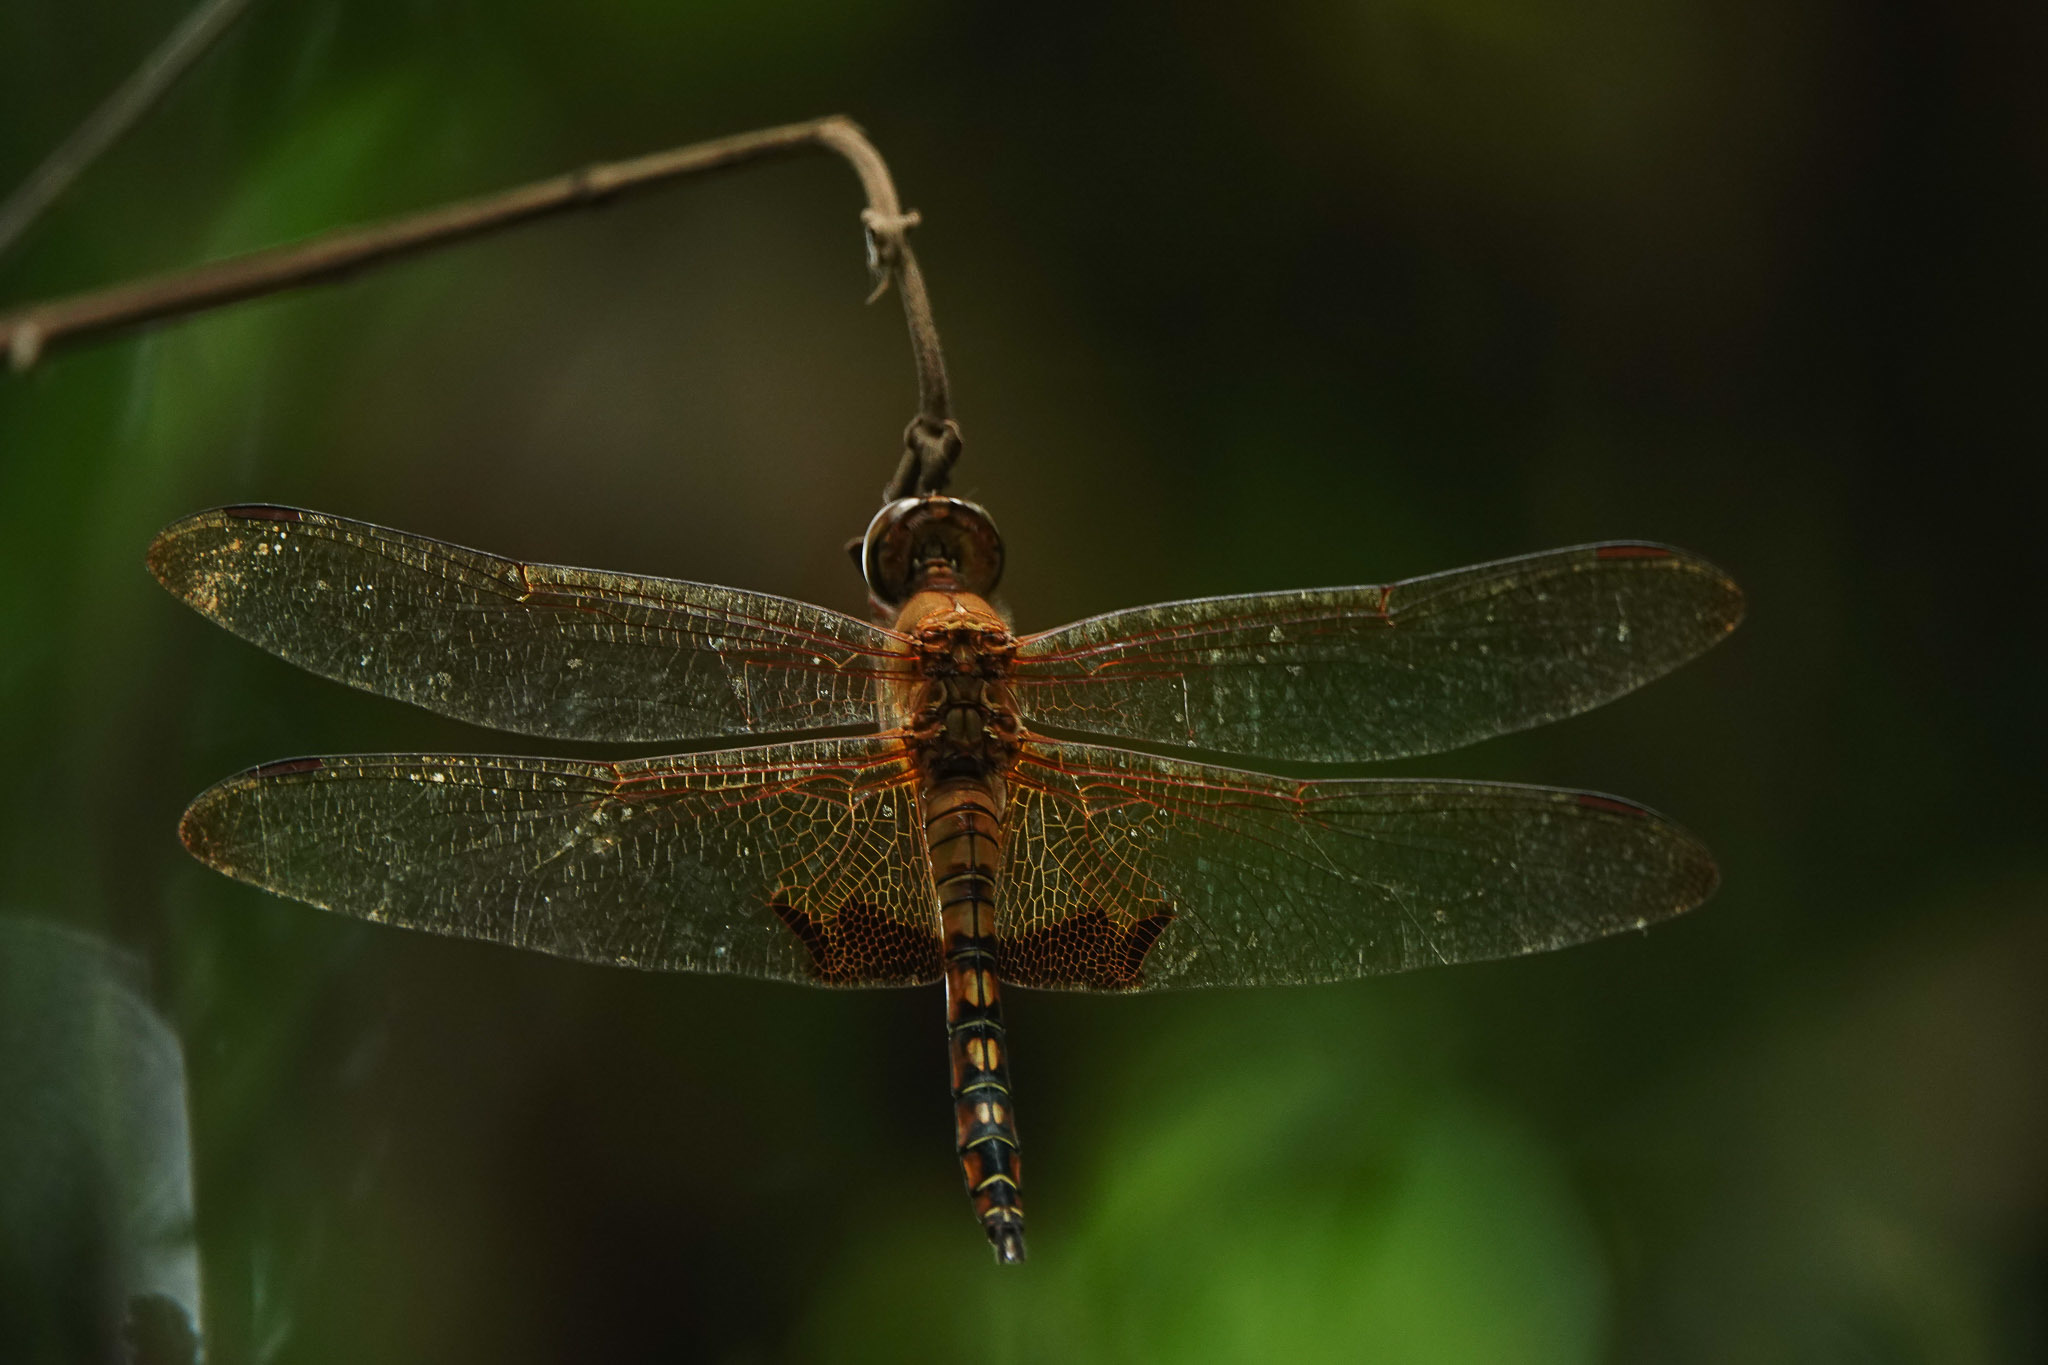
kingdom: Animalia
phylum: Arthropoda
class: Insecta
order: Odonata
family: Libellulidae
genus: Hydrobasileus
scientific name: Hydrobasileus croceus
